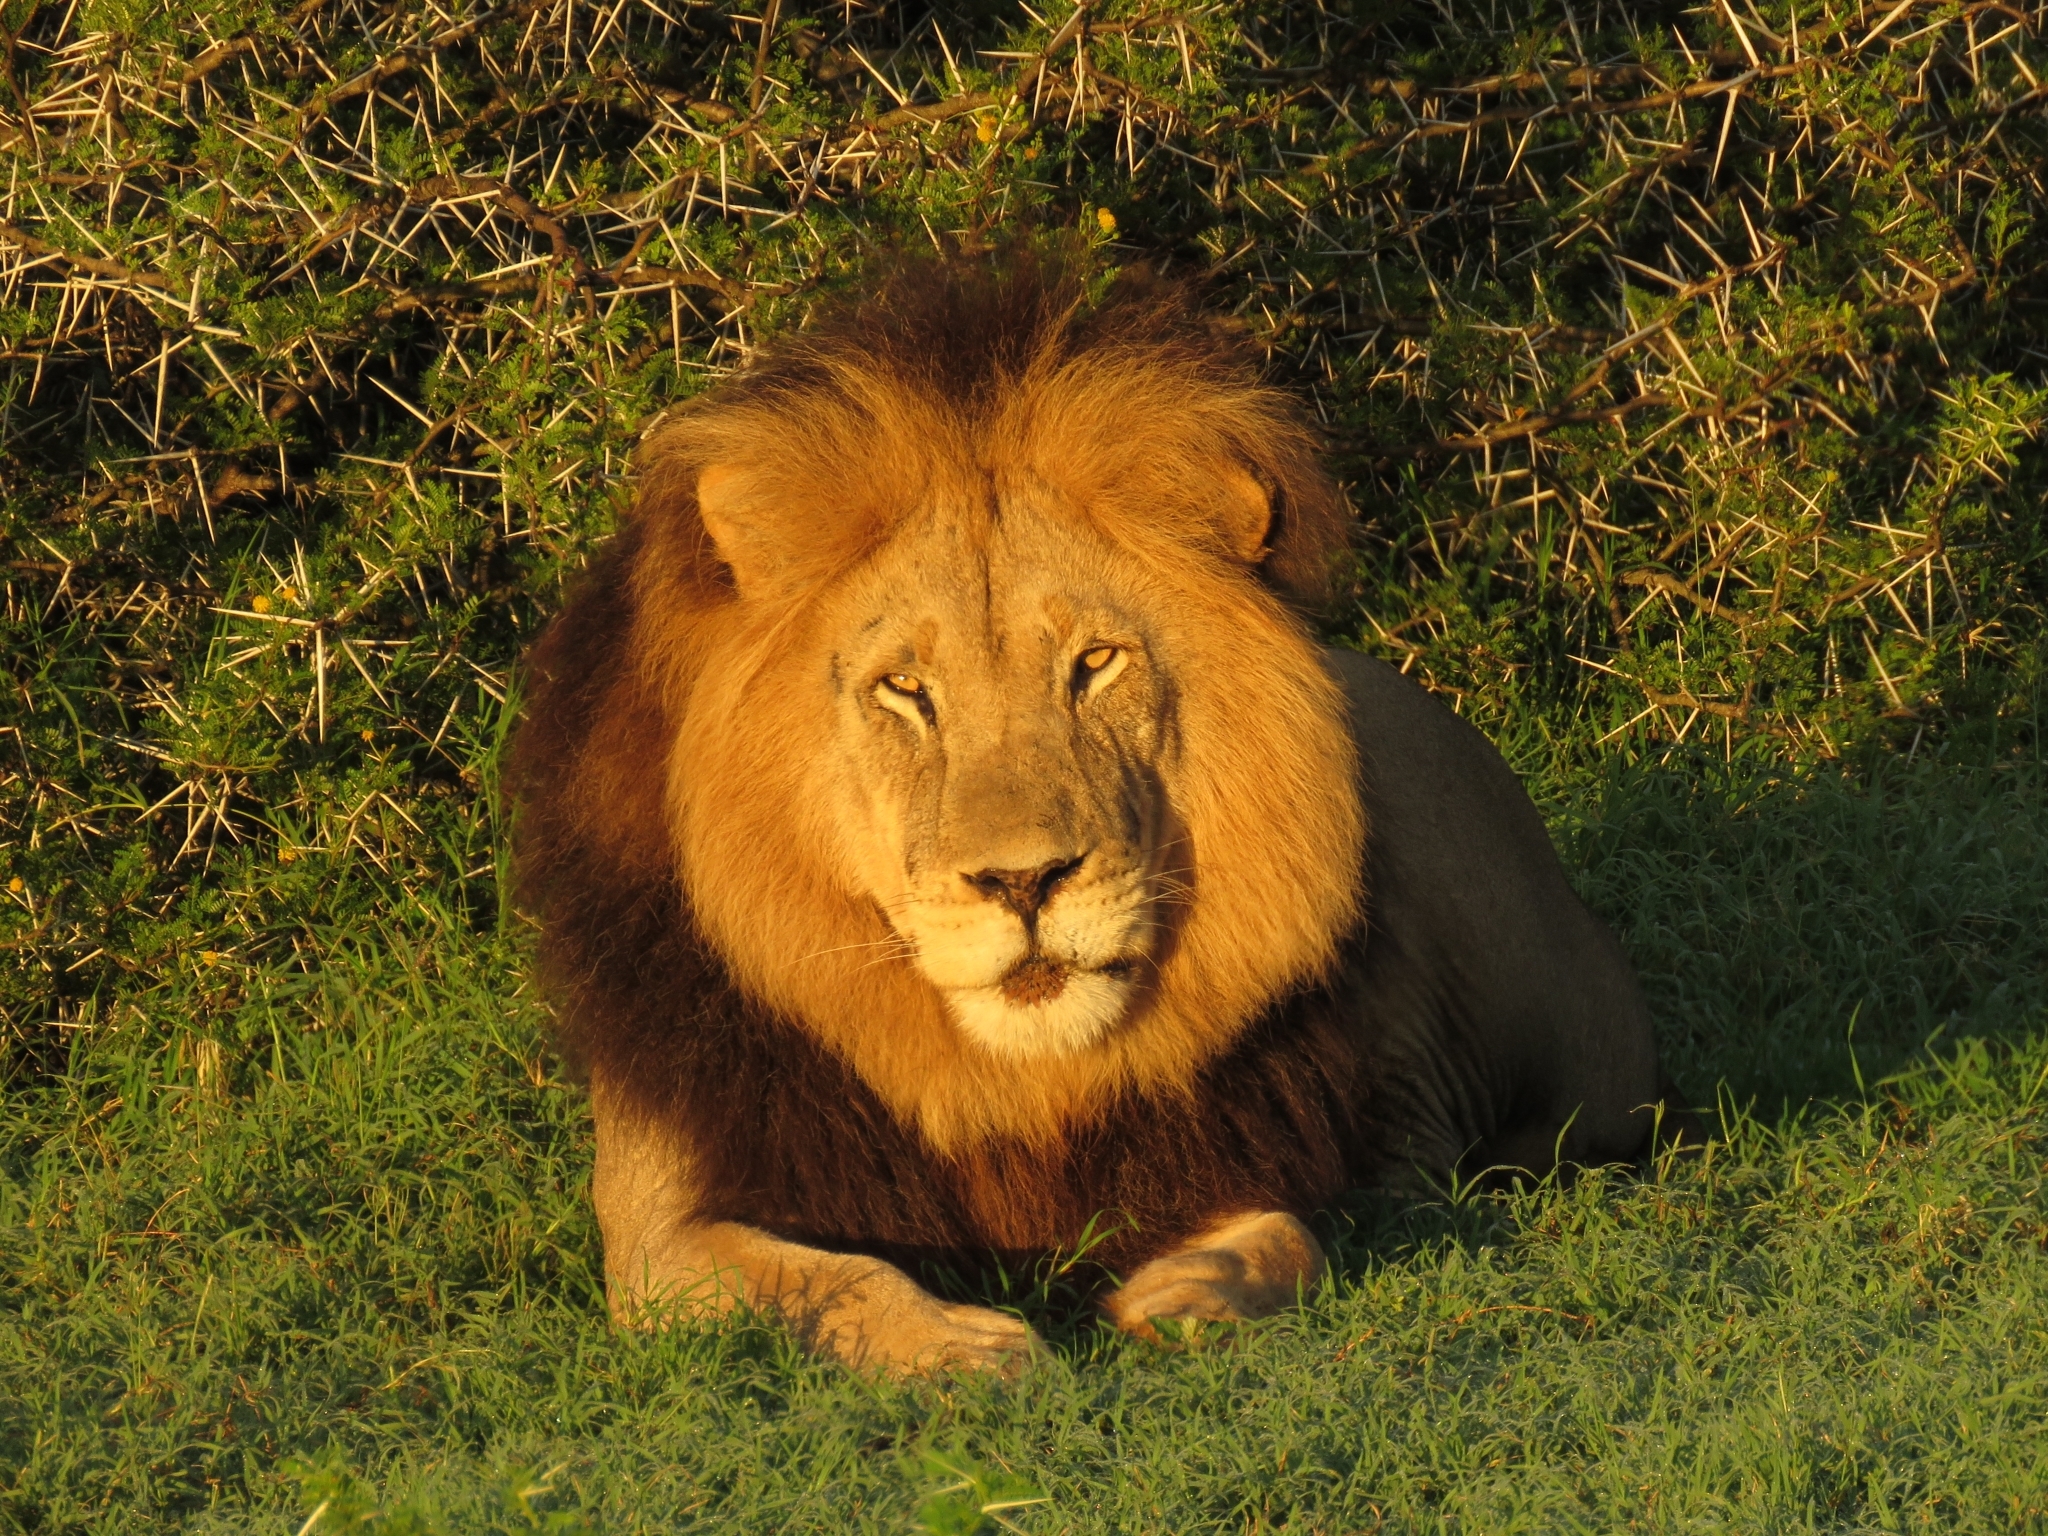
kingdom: Animalia
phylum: Chordata
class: Mammalia
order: Carnivora
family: Felidae
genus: Panthera
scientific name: Panthera leo
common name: Lion
